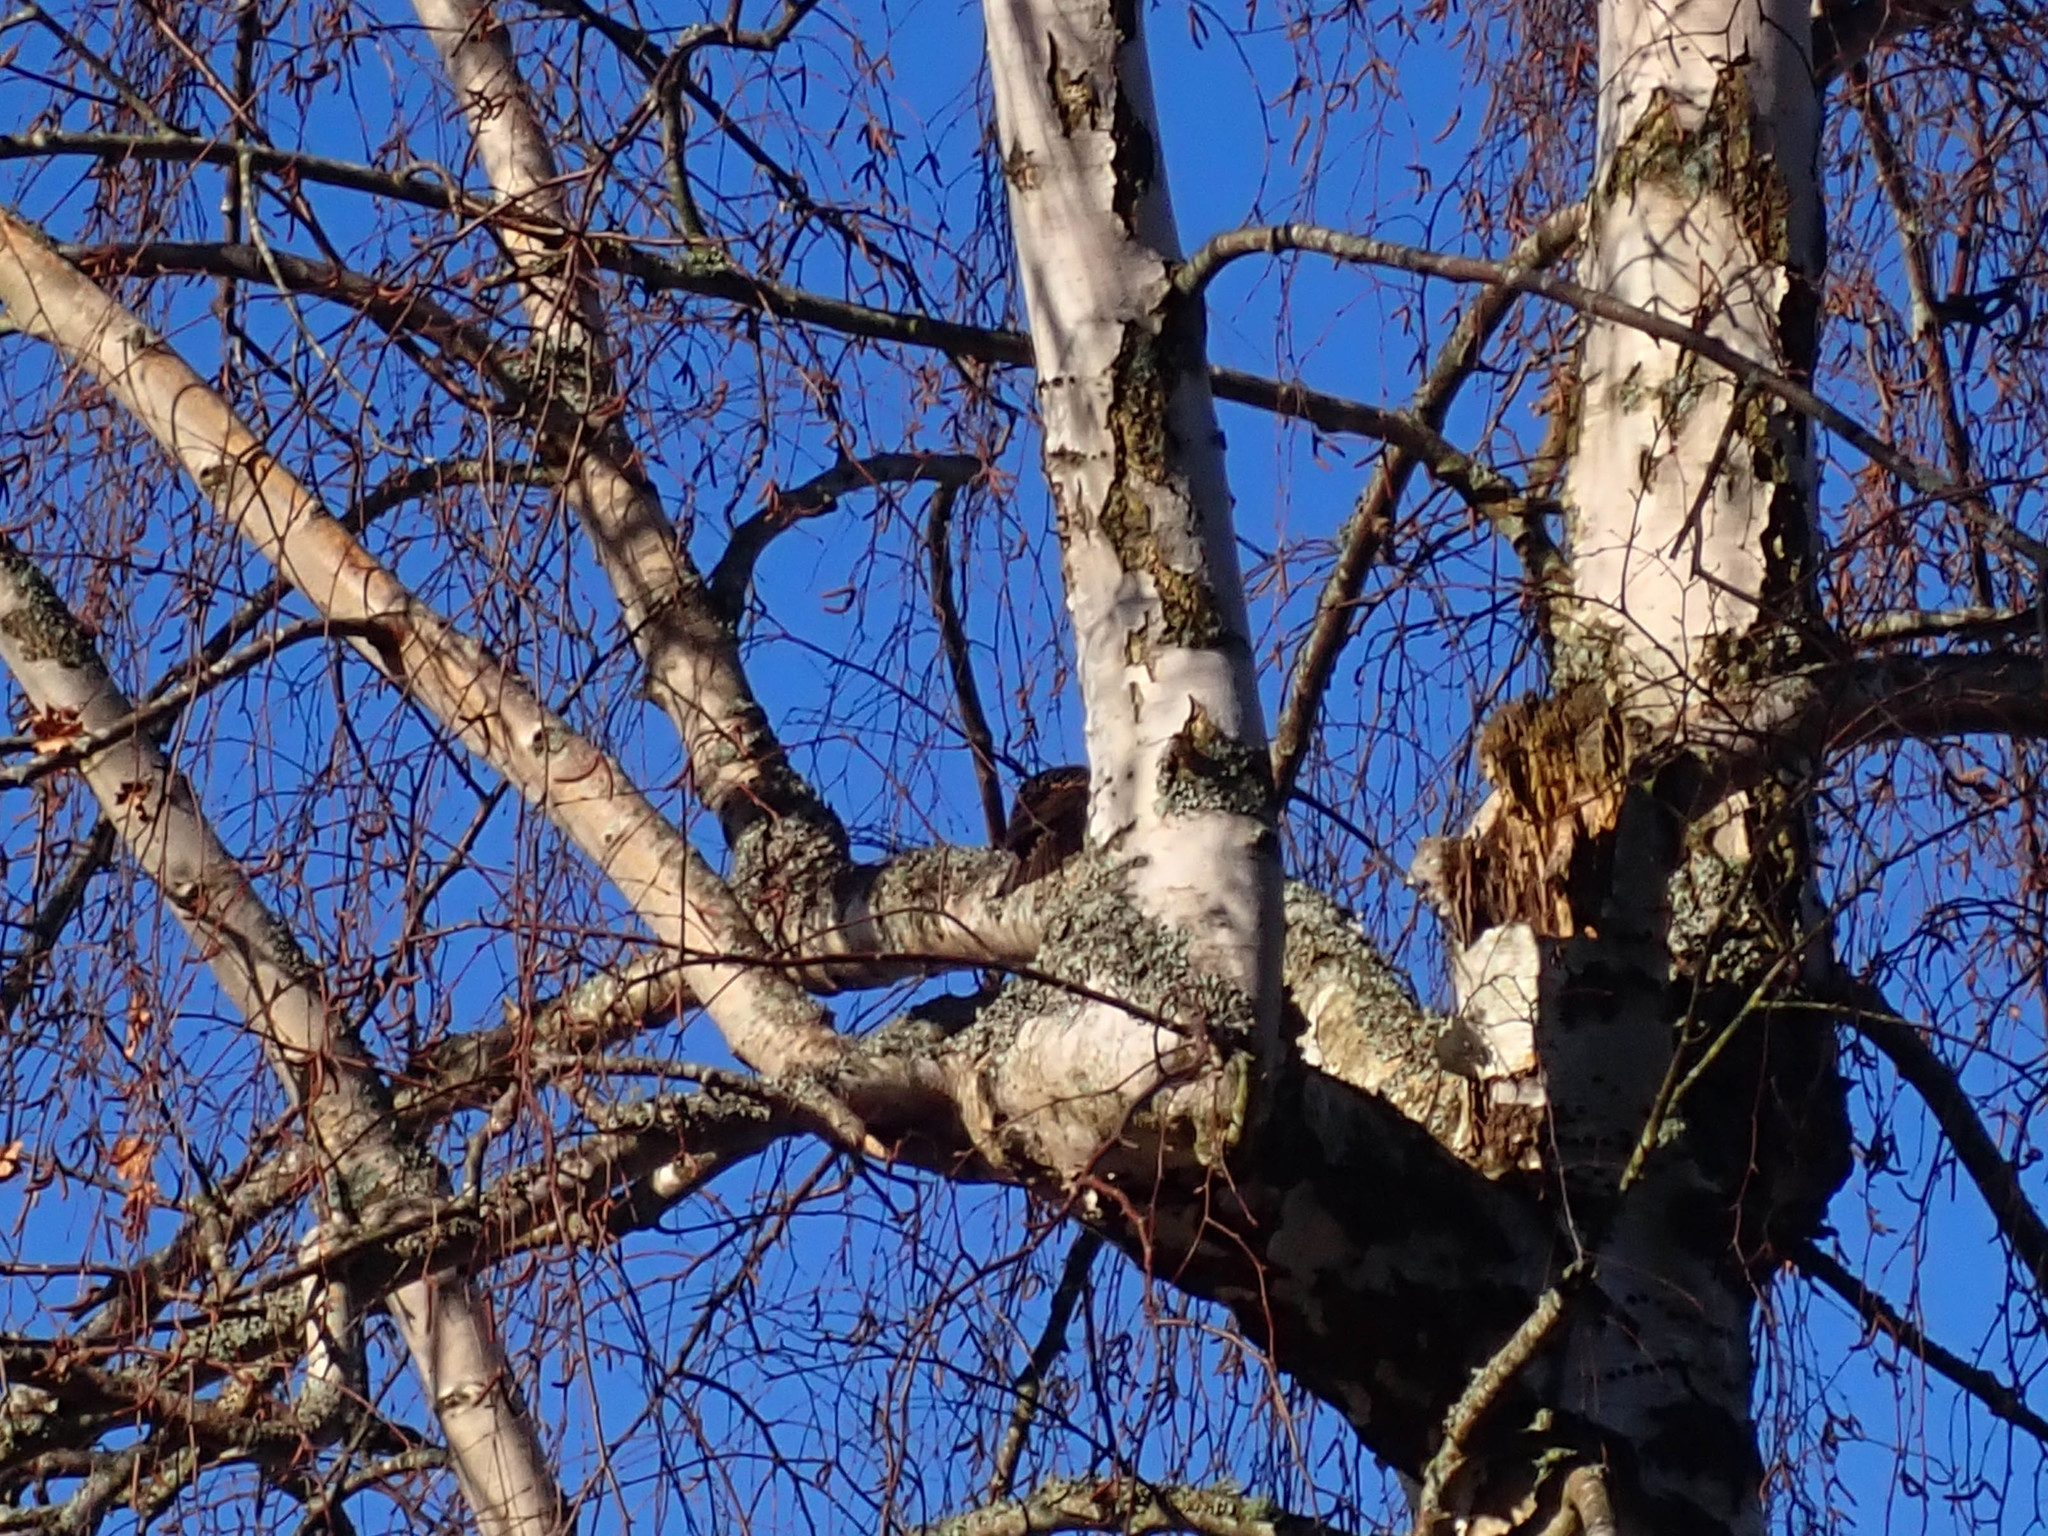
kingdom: Animalia
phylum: Chordata
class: Aves
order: Passeriformes
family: Sturnidae
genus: Sturnus
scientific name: Sturnus vulgaris
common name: Common starling
